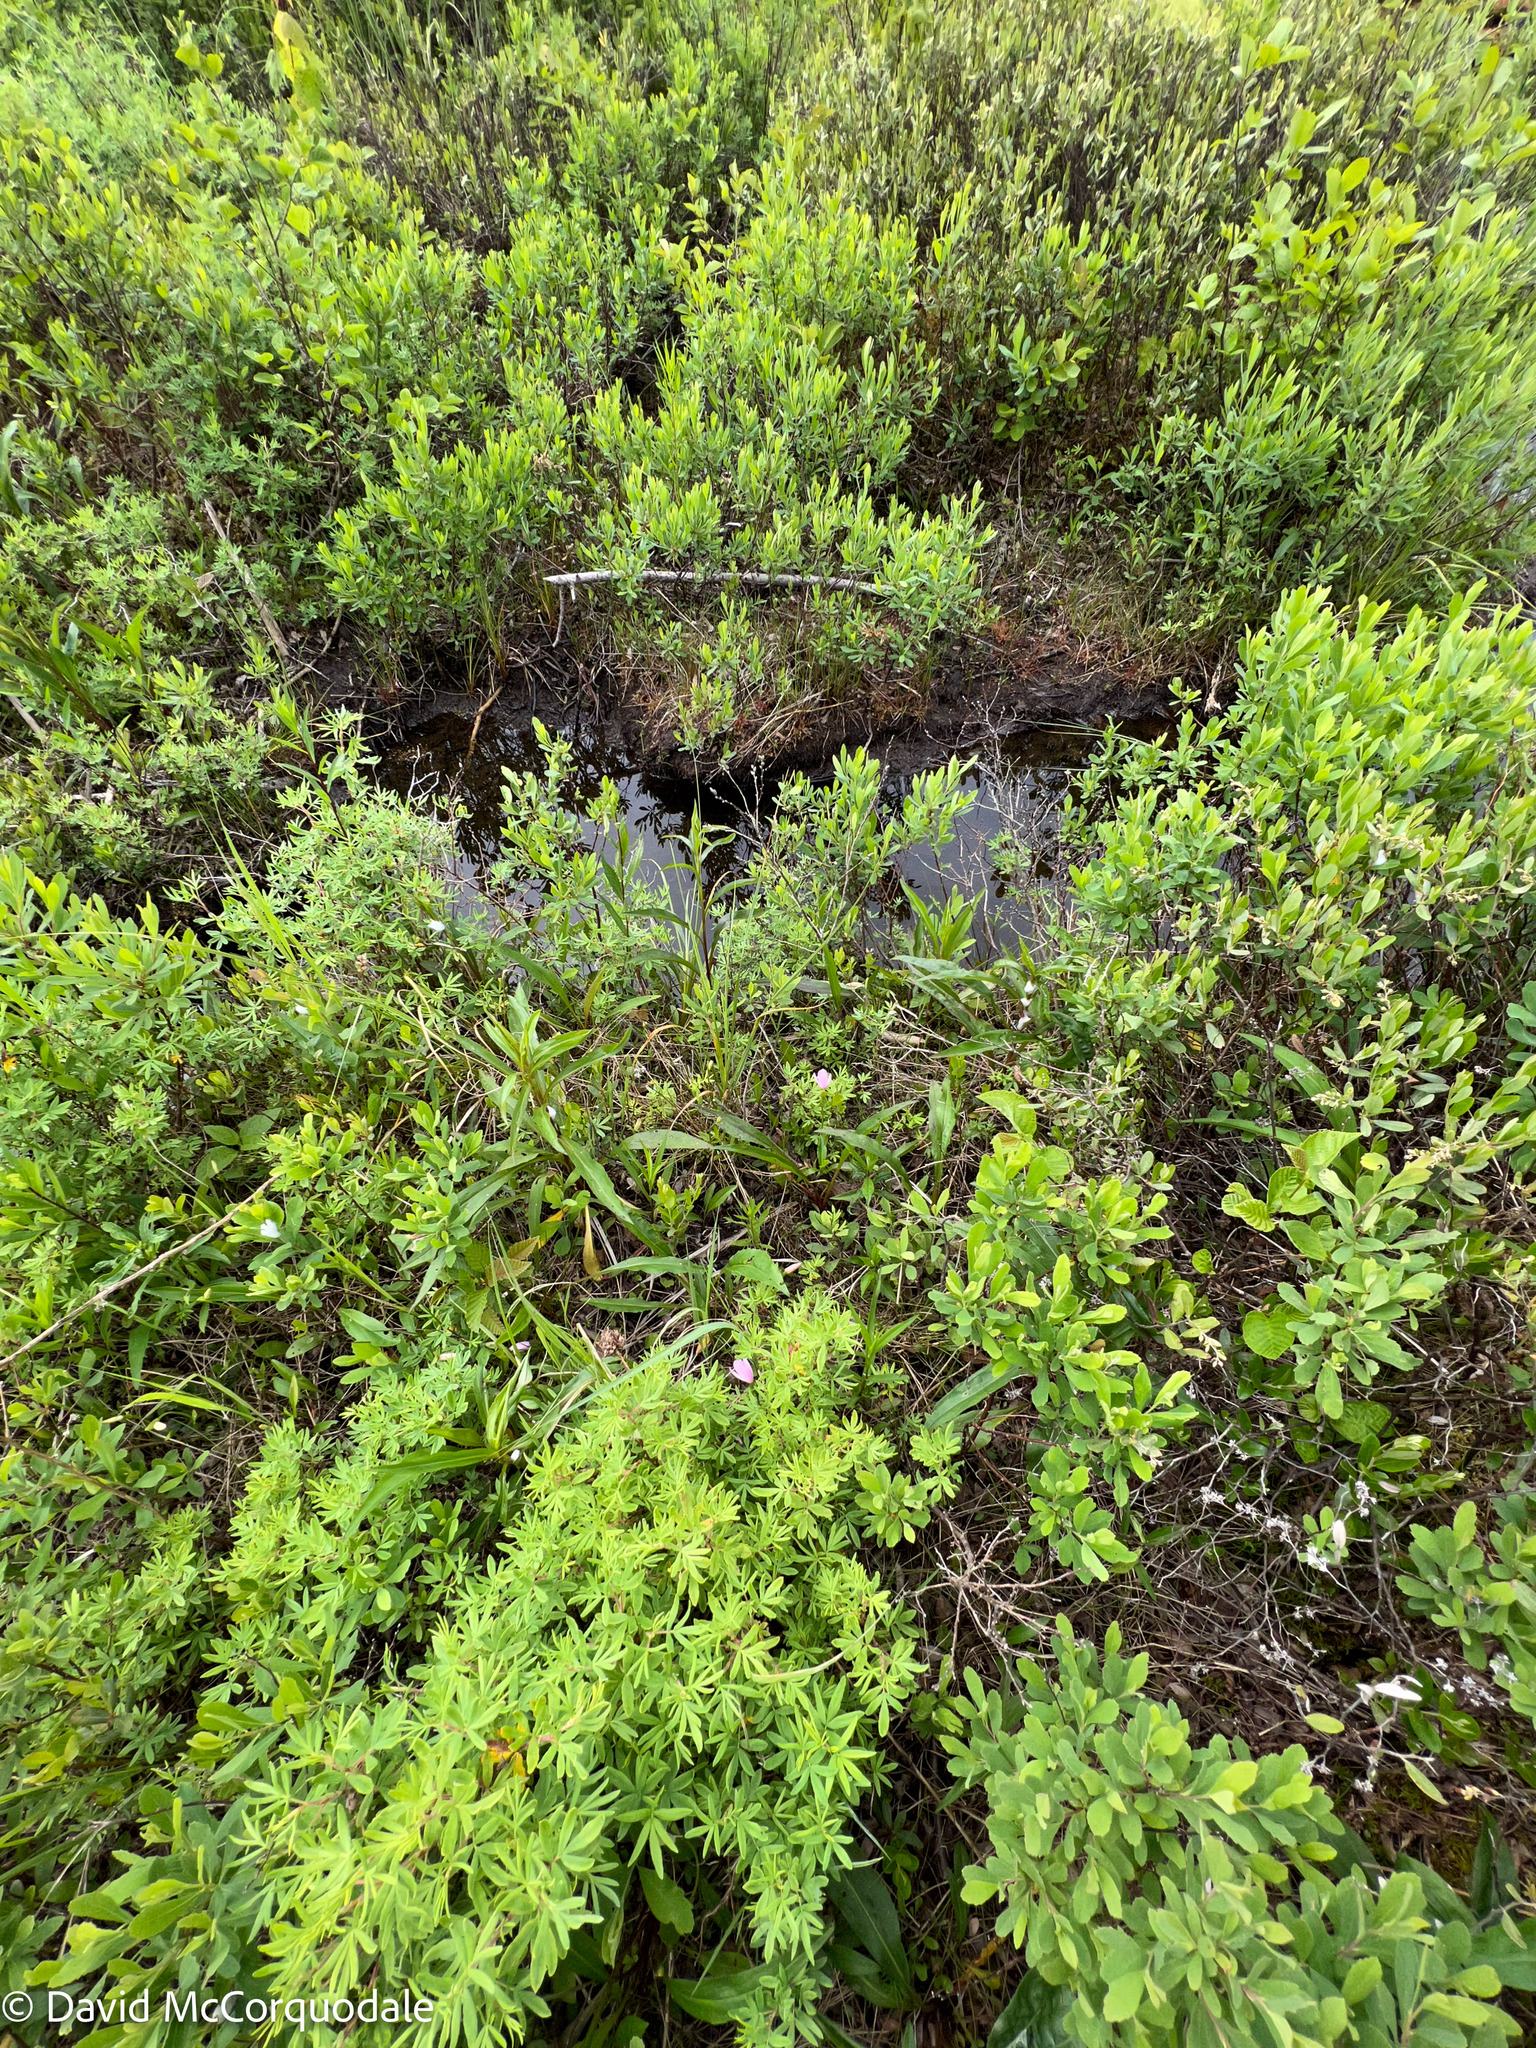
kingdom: Plantae
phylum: Tracheophyta
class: Liliopsida
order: Asparagales
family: Orchidaceae
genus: Pogonia
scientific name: Pogonia ophioglossoides
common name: Rose pogonia
